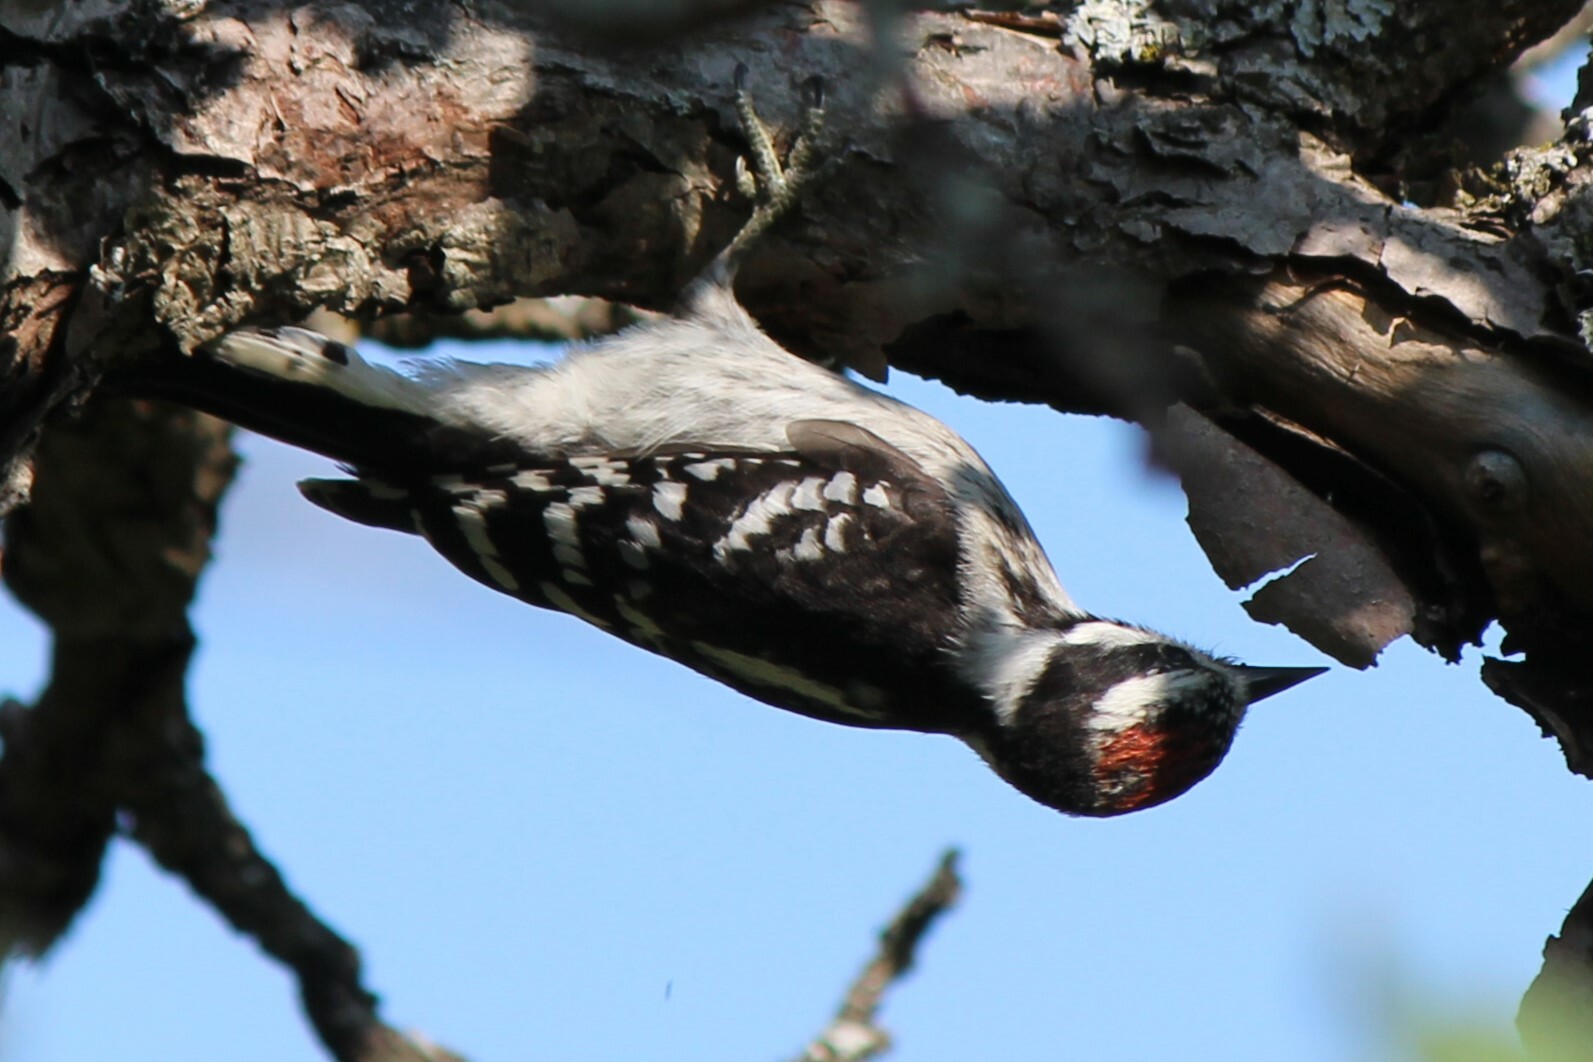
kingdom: Animalia
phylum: Chordata
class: Aves
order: Piciformes
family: Picidae
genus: Dryobates
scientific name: Dryobates pubescens
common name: Downy woodpecker
